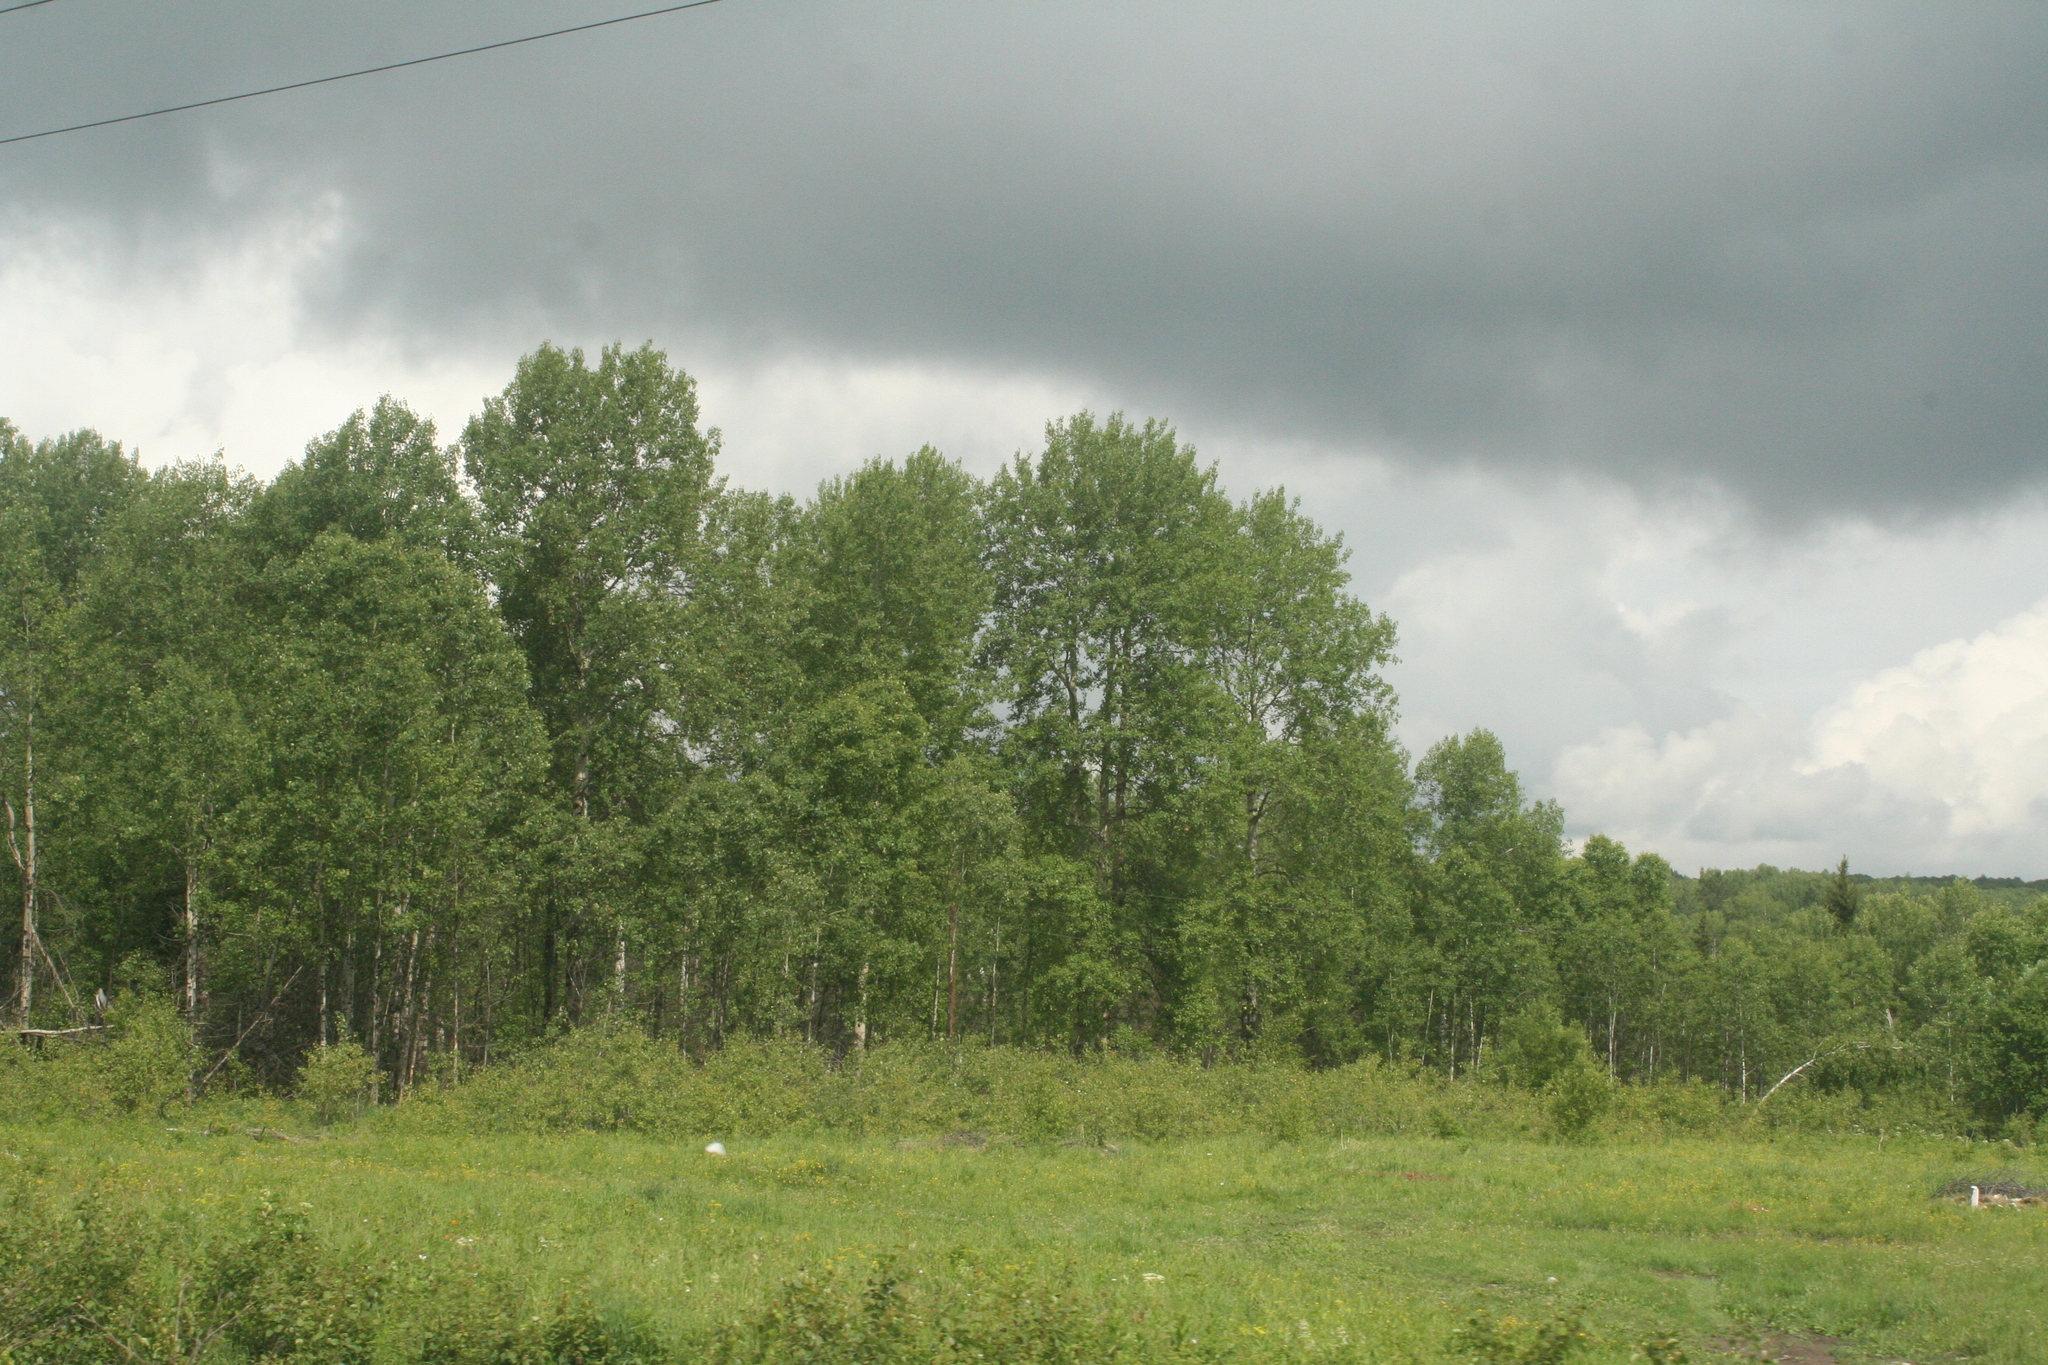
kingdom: Plantae
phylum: Tracheophyta
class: Magnoliopsida
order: Malpighiales
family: Salicaceae
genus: Populus
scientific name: Populus tremula
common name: European aspen
